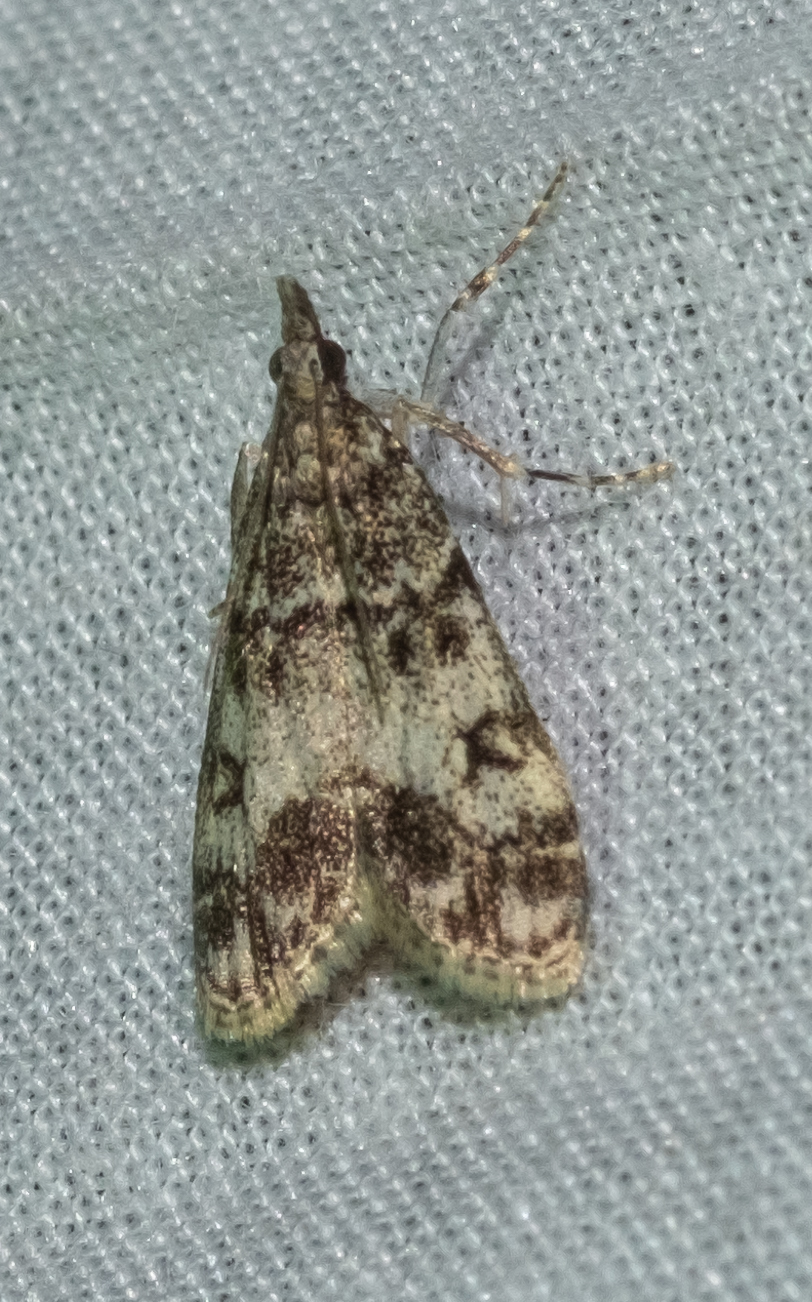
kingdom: Animalia
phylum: Arthropoda
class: Insecta
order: Lepidoptera
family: Crambidae
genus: Eudonia
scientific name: Eudonia lacustrata
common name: Little grey
